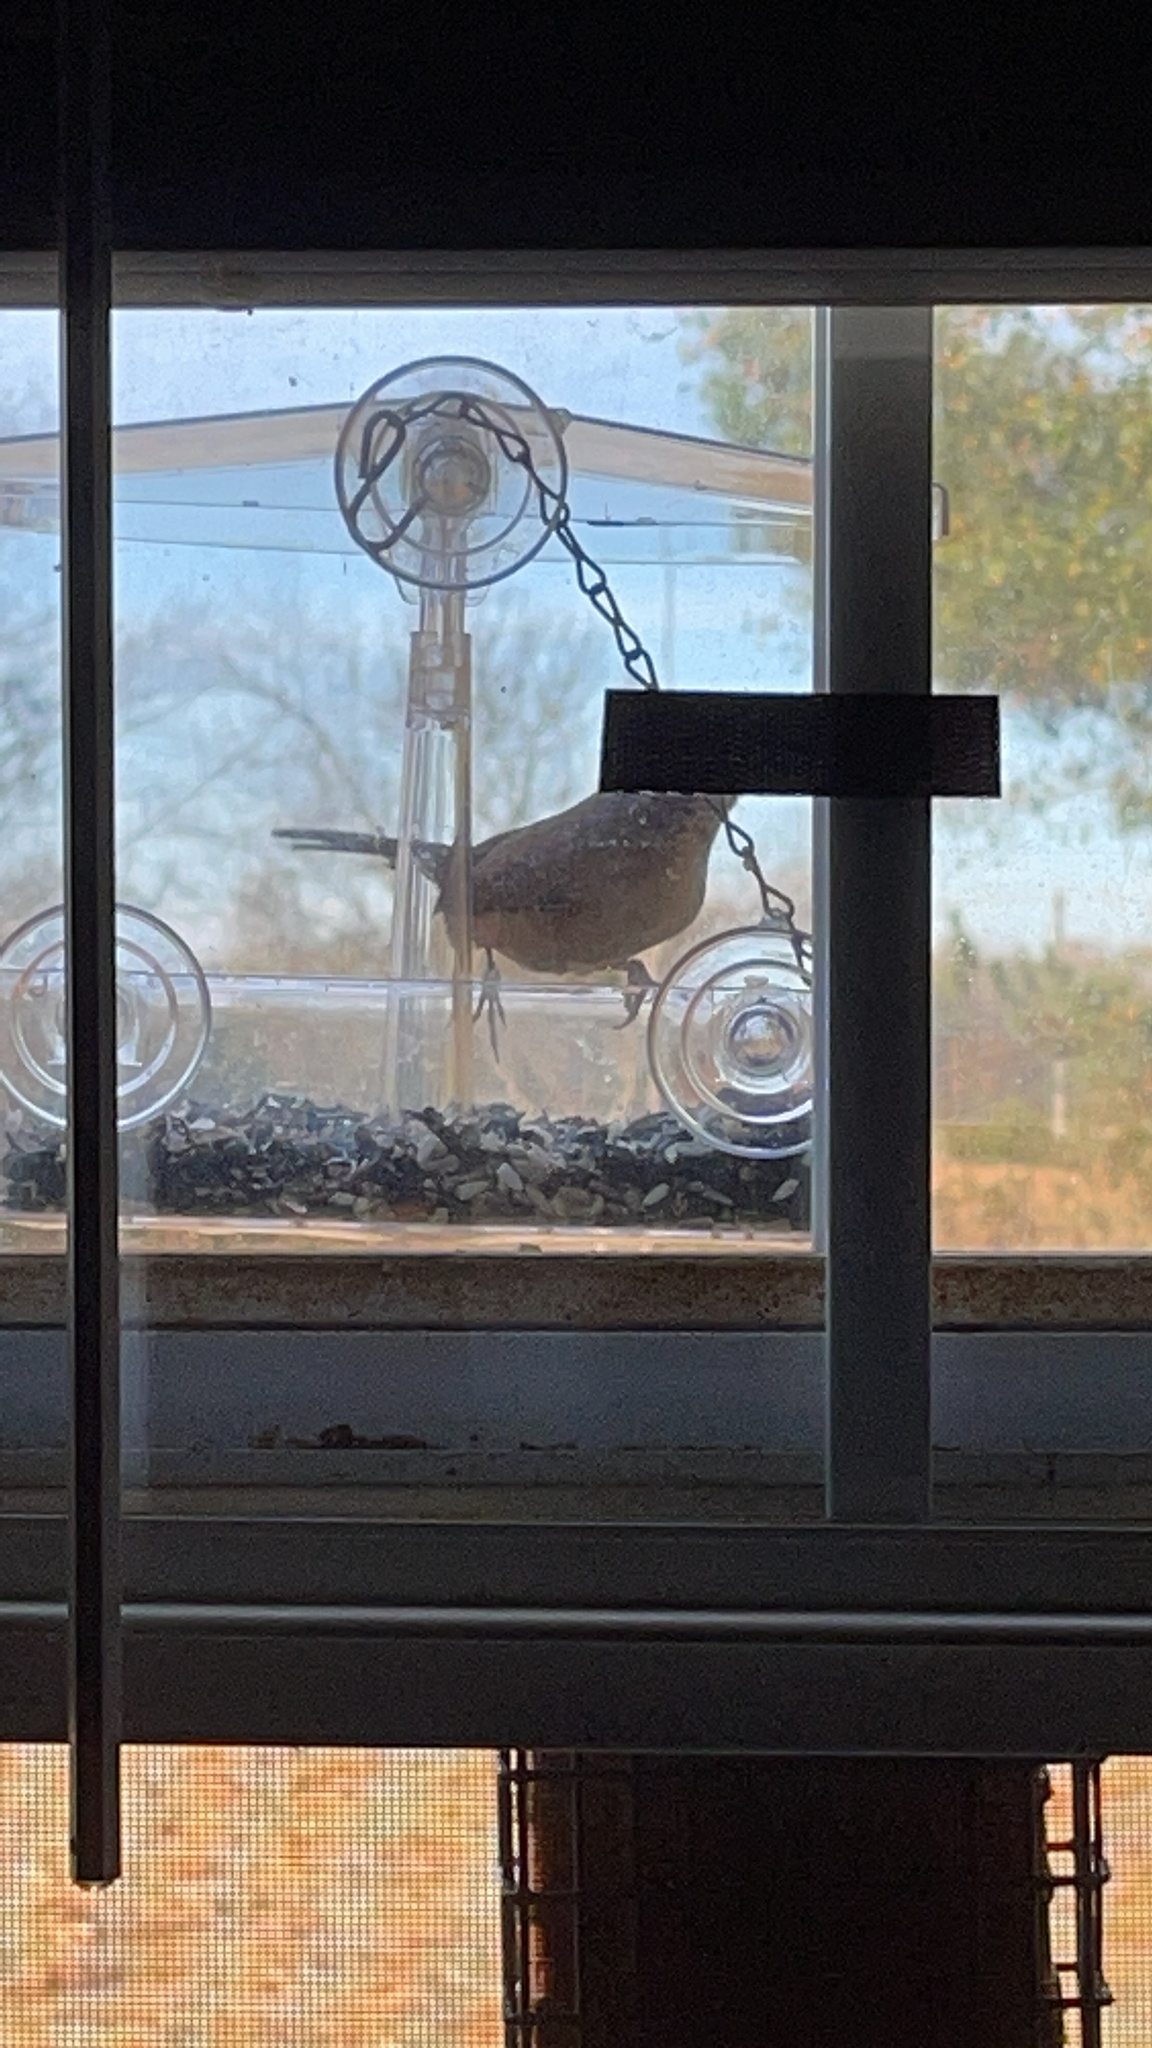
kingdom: Animalia
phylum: Chordata
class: Aves
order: Passeriformes
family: Troglodytidae
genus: Thryothorus
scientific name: Thryothorus ludovicianus
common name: Carolina wren
